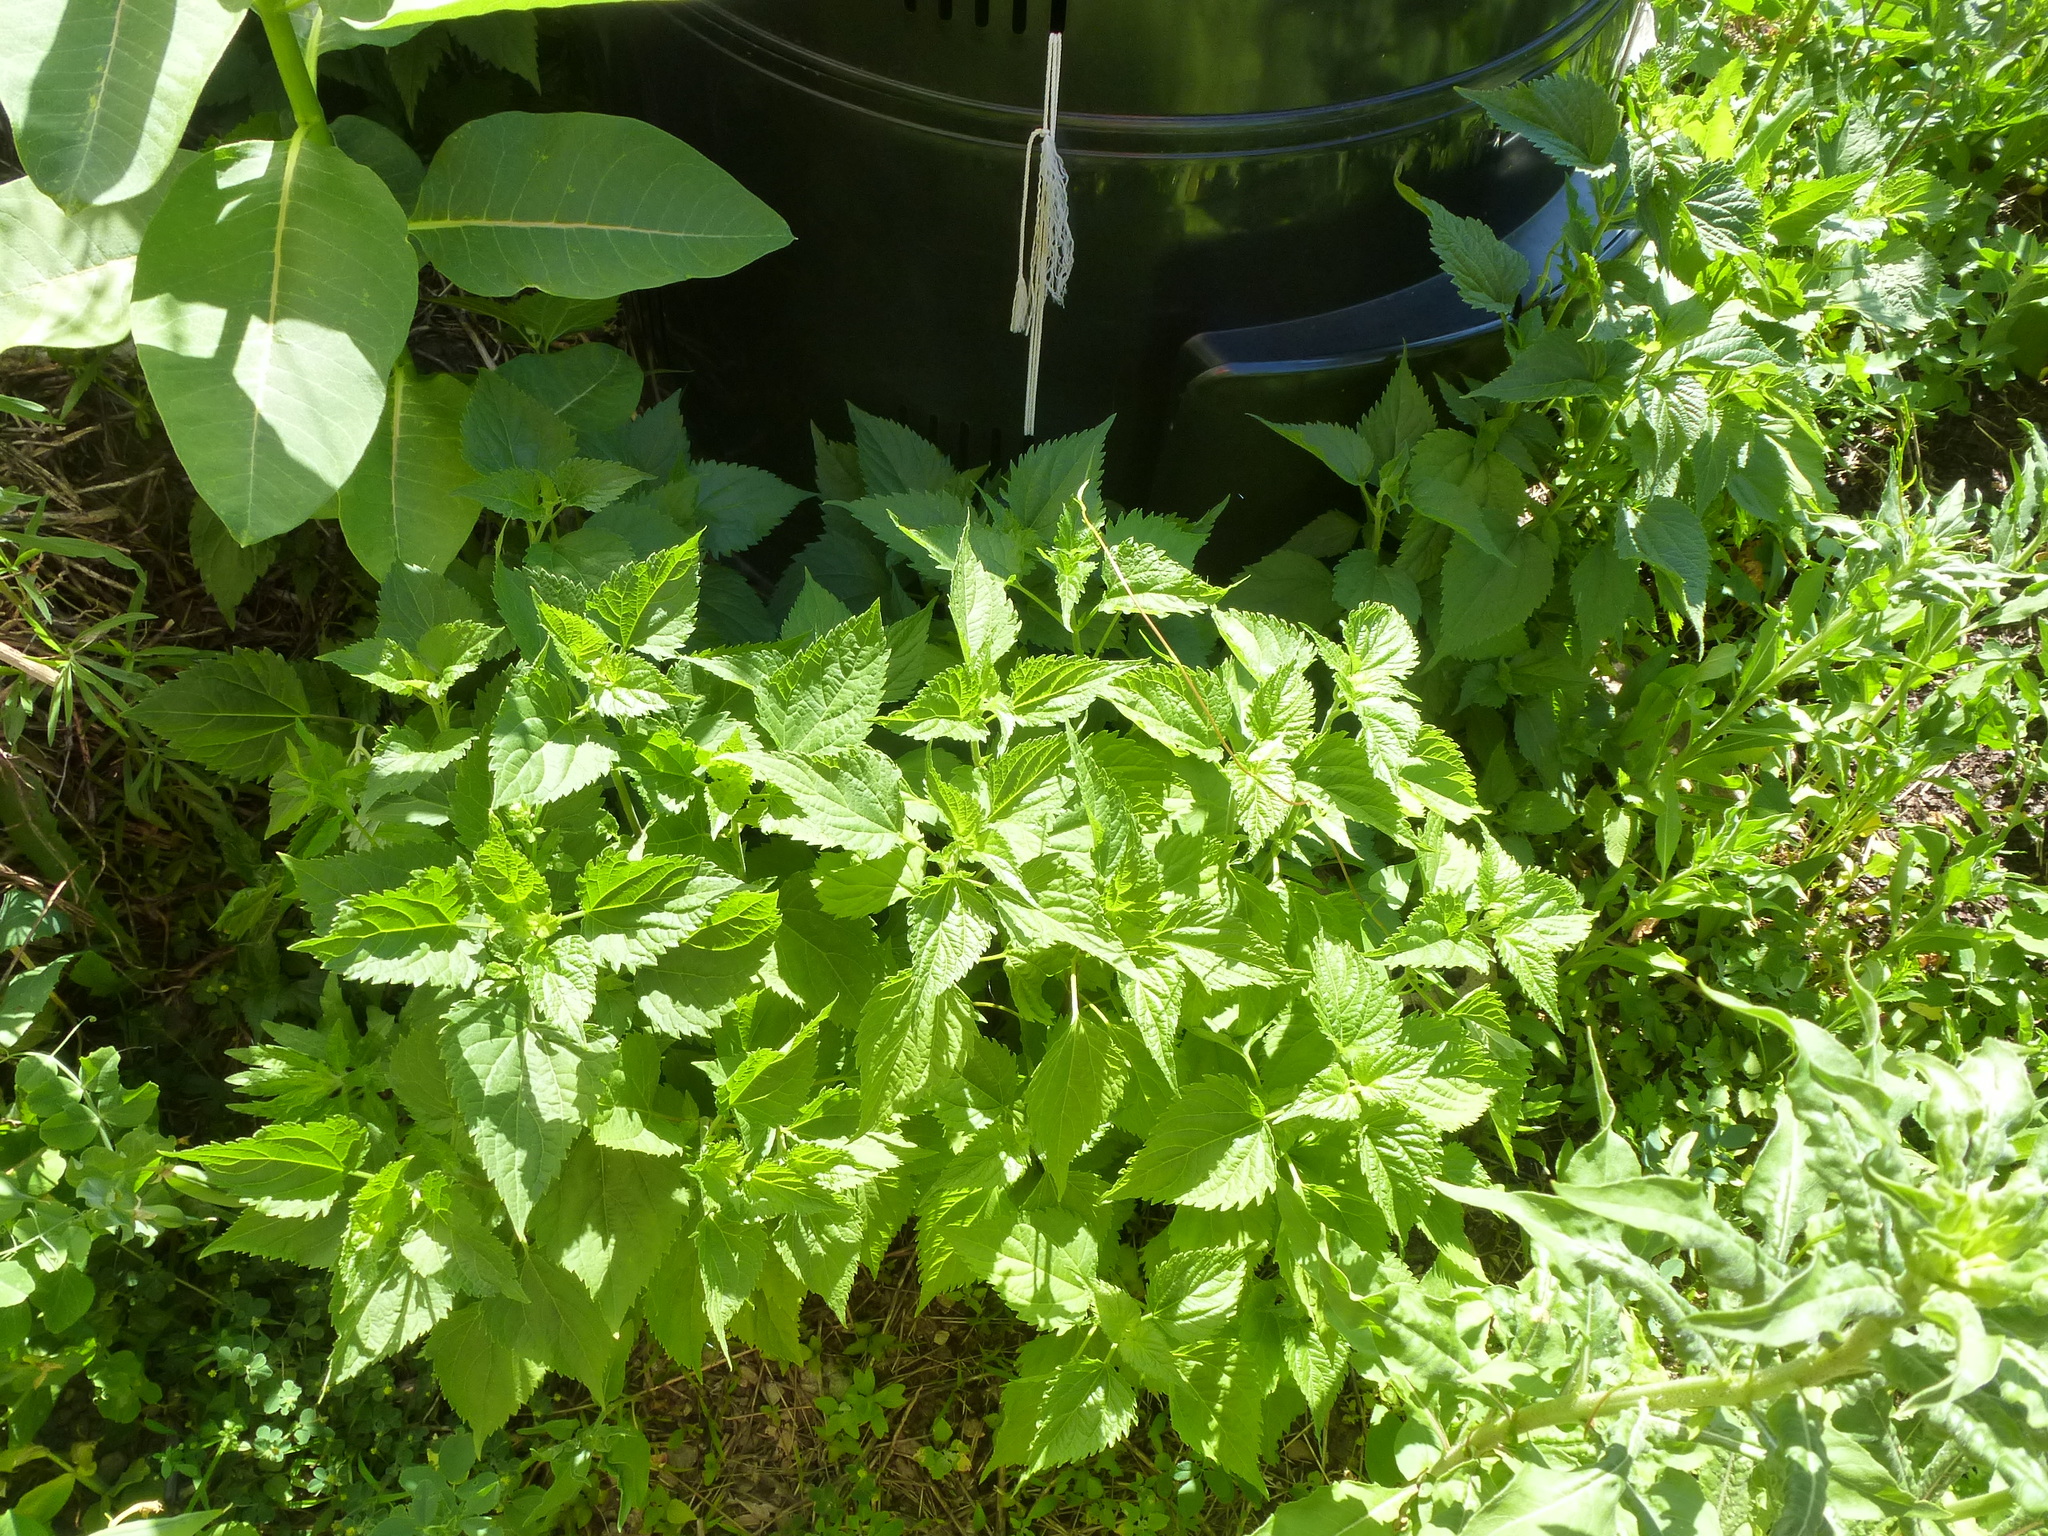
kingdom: Plantae
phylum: Tracheophyta
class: Magnoliopsida
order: Asterales
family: Asteraceae
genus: Ageratina
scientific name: Ageratina altissima
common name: White snakeroot
